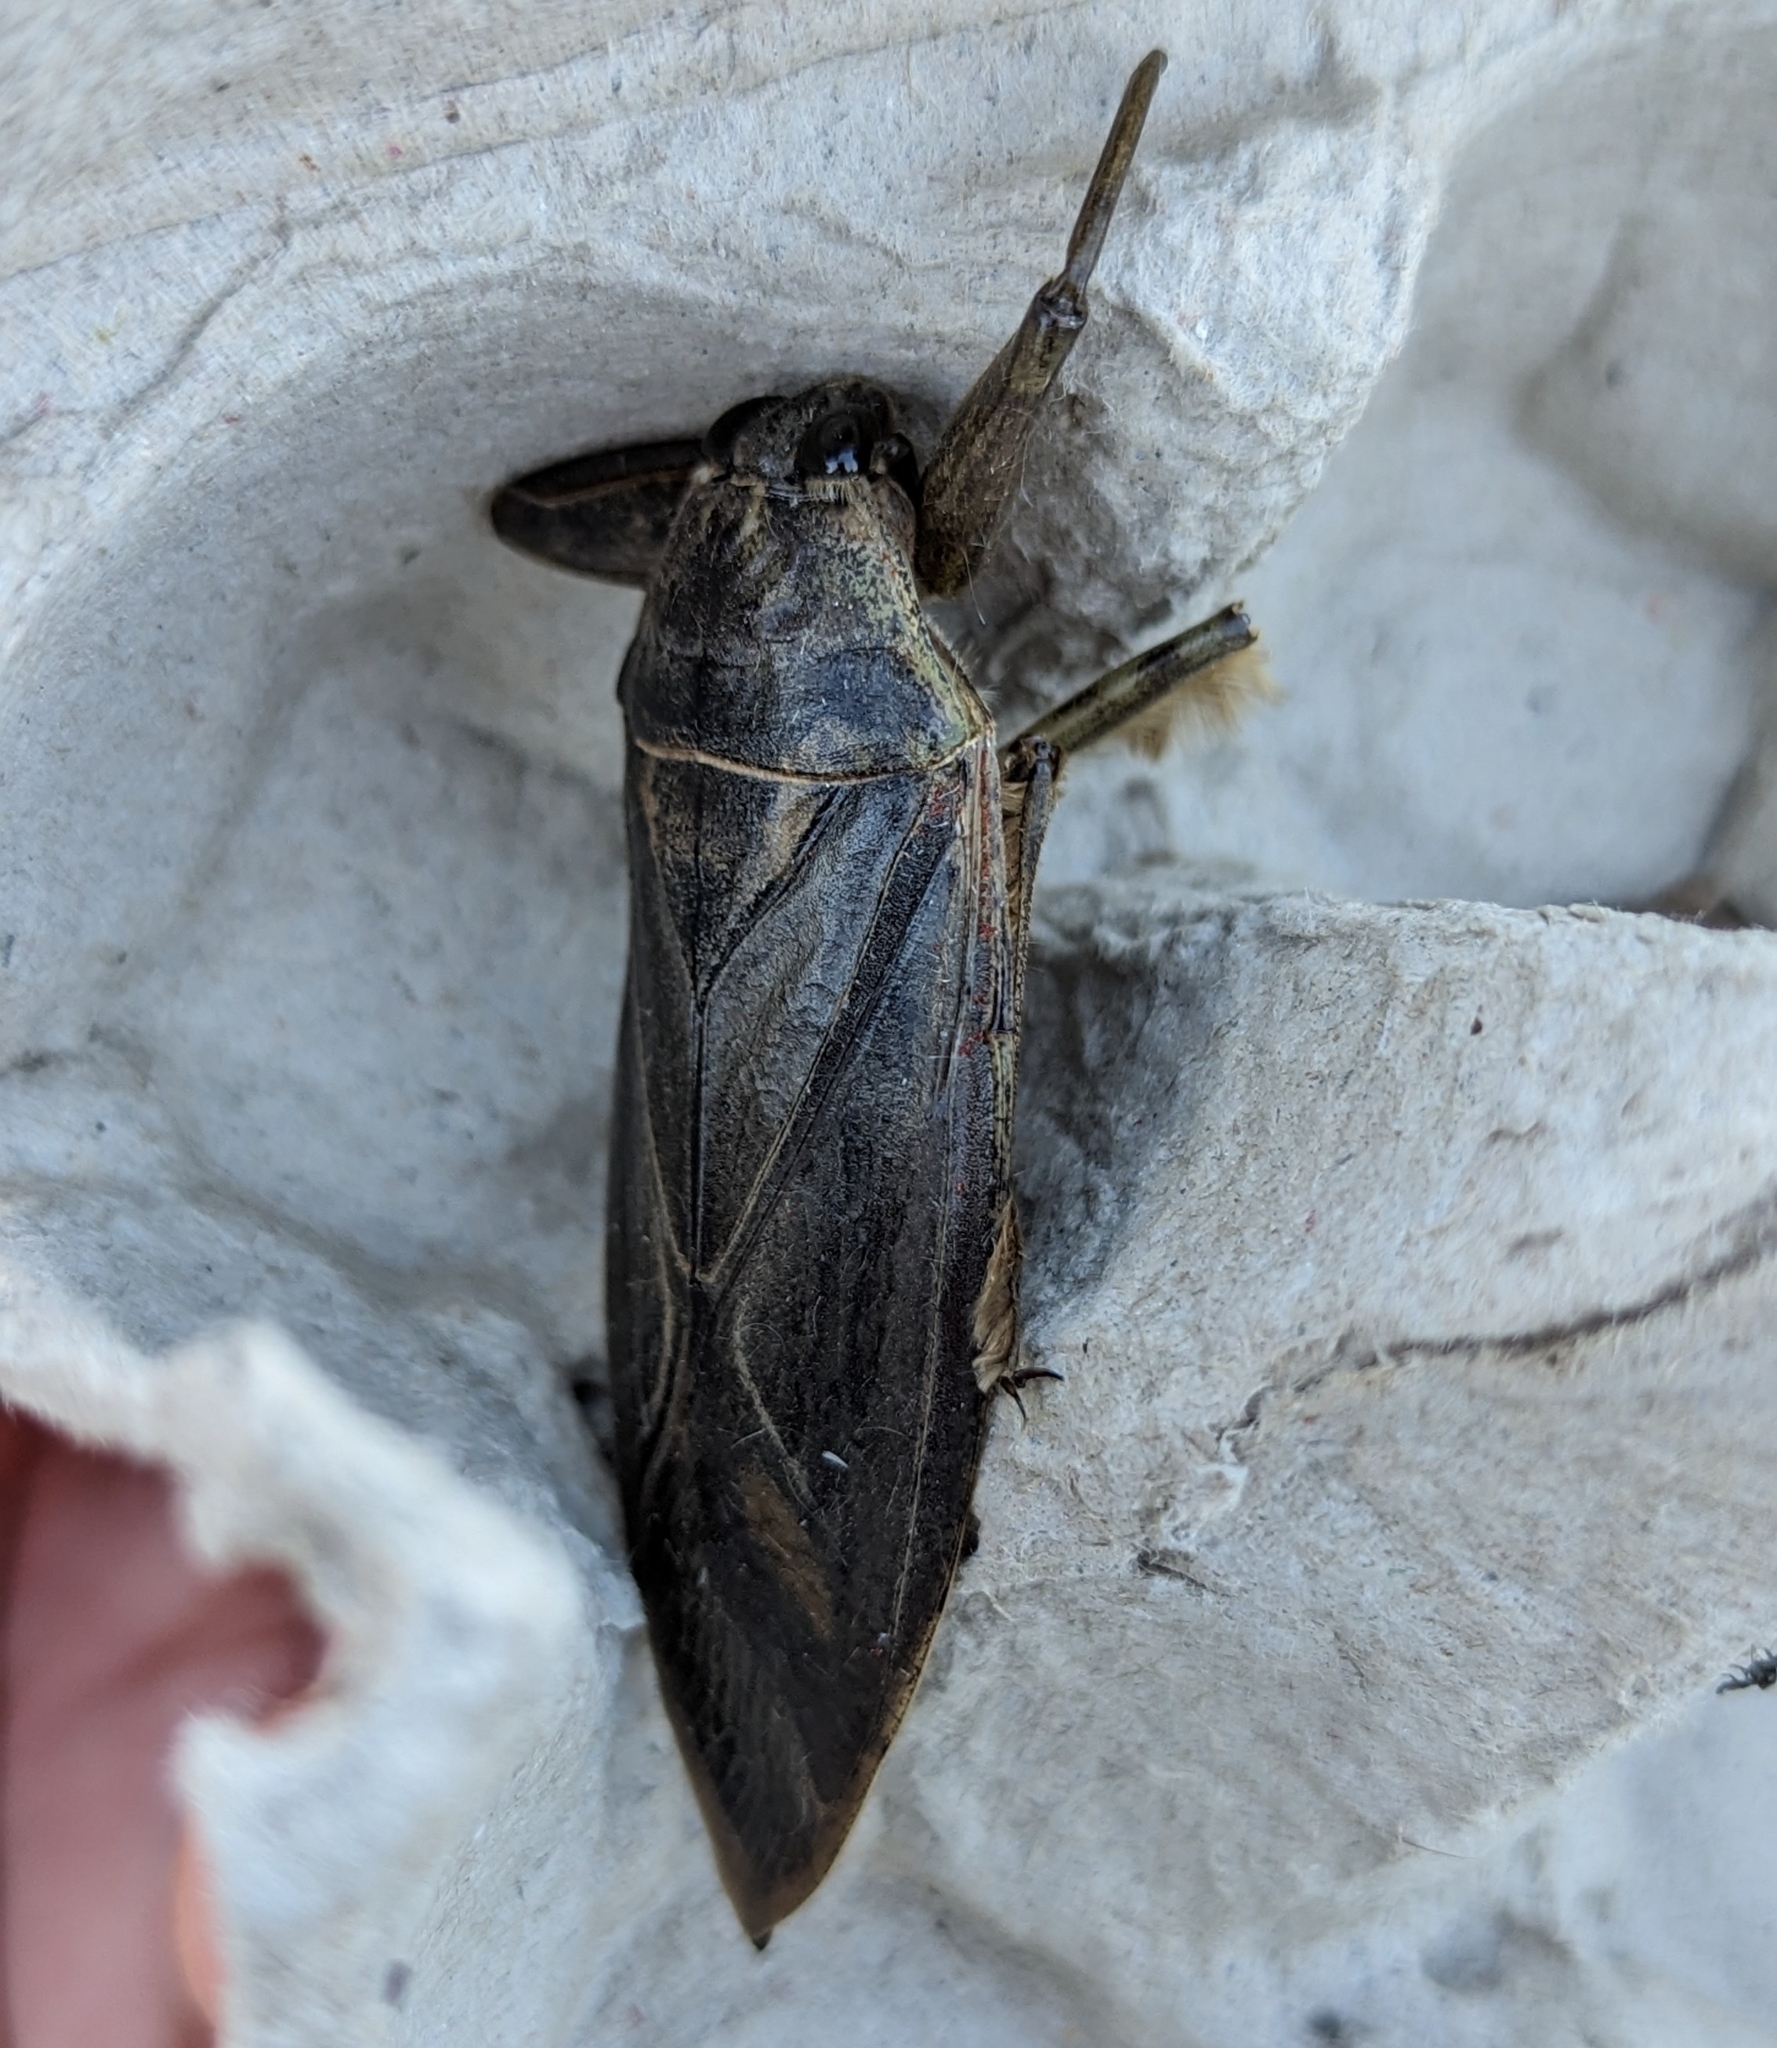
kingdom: Animalia
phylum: Arthropoda
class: Insecta
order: Hemiptera
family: Belostomatidae
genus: Lethocerus
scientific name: Lethocerus americanus
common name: Giant water bug
